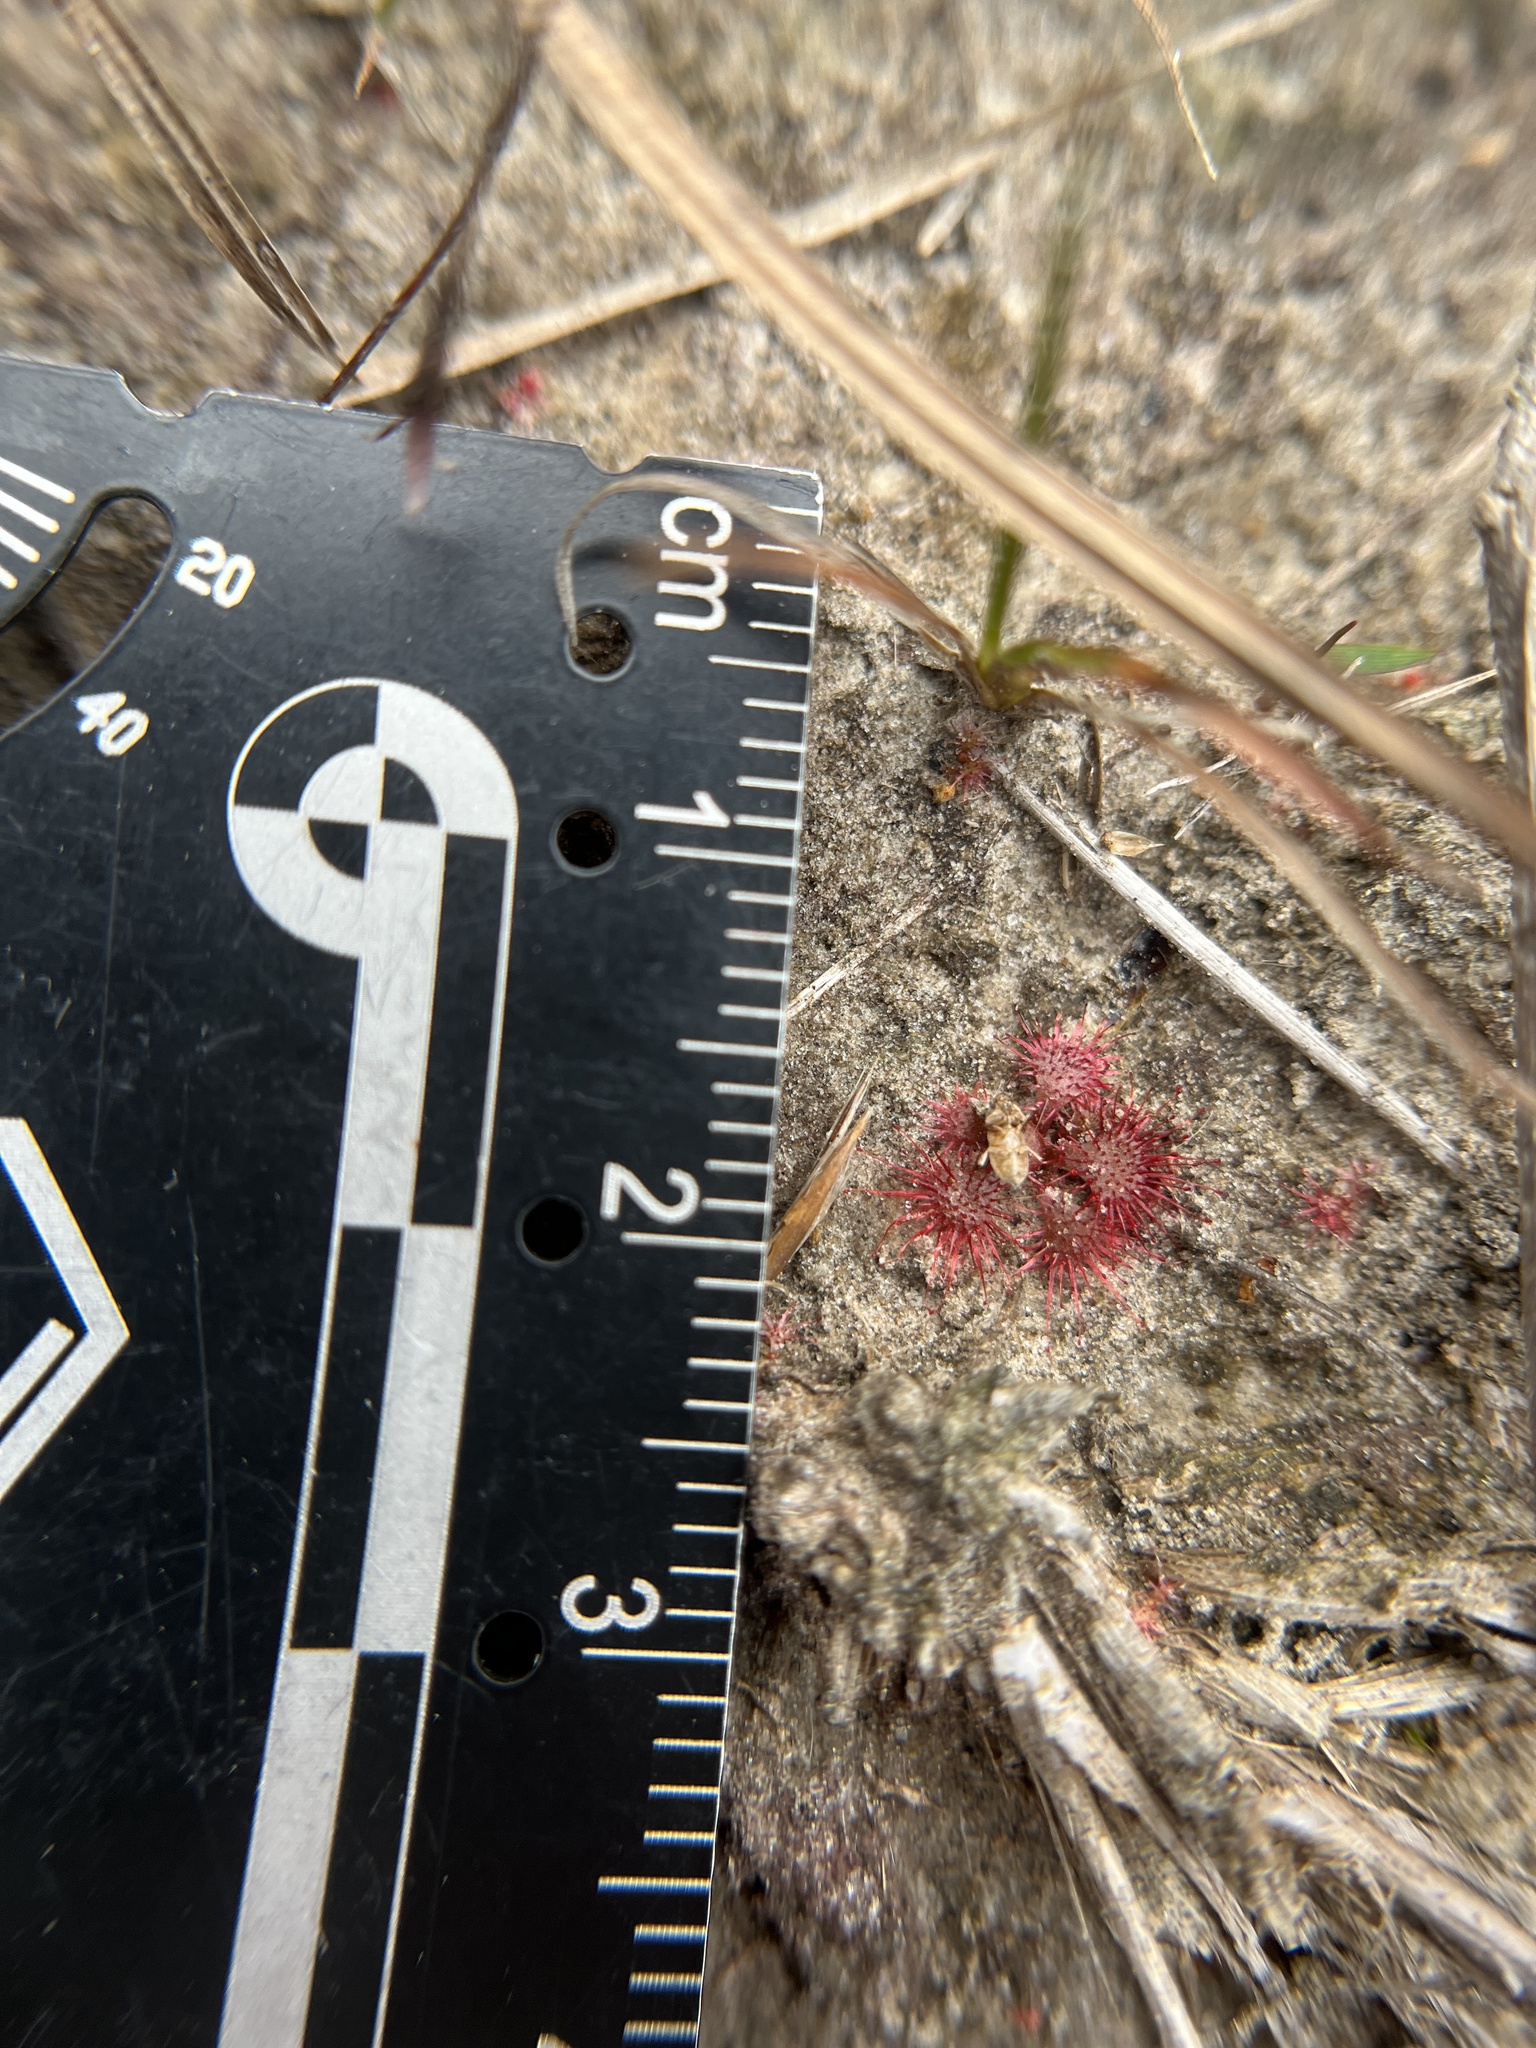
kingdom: Plantae
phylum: Tracheophyta
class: Magnoliopsida
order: Caryophyllales
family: Droseraceae
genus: Drosera
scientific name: Drosera brevifolia
